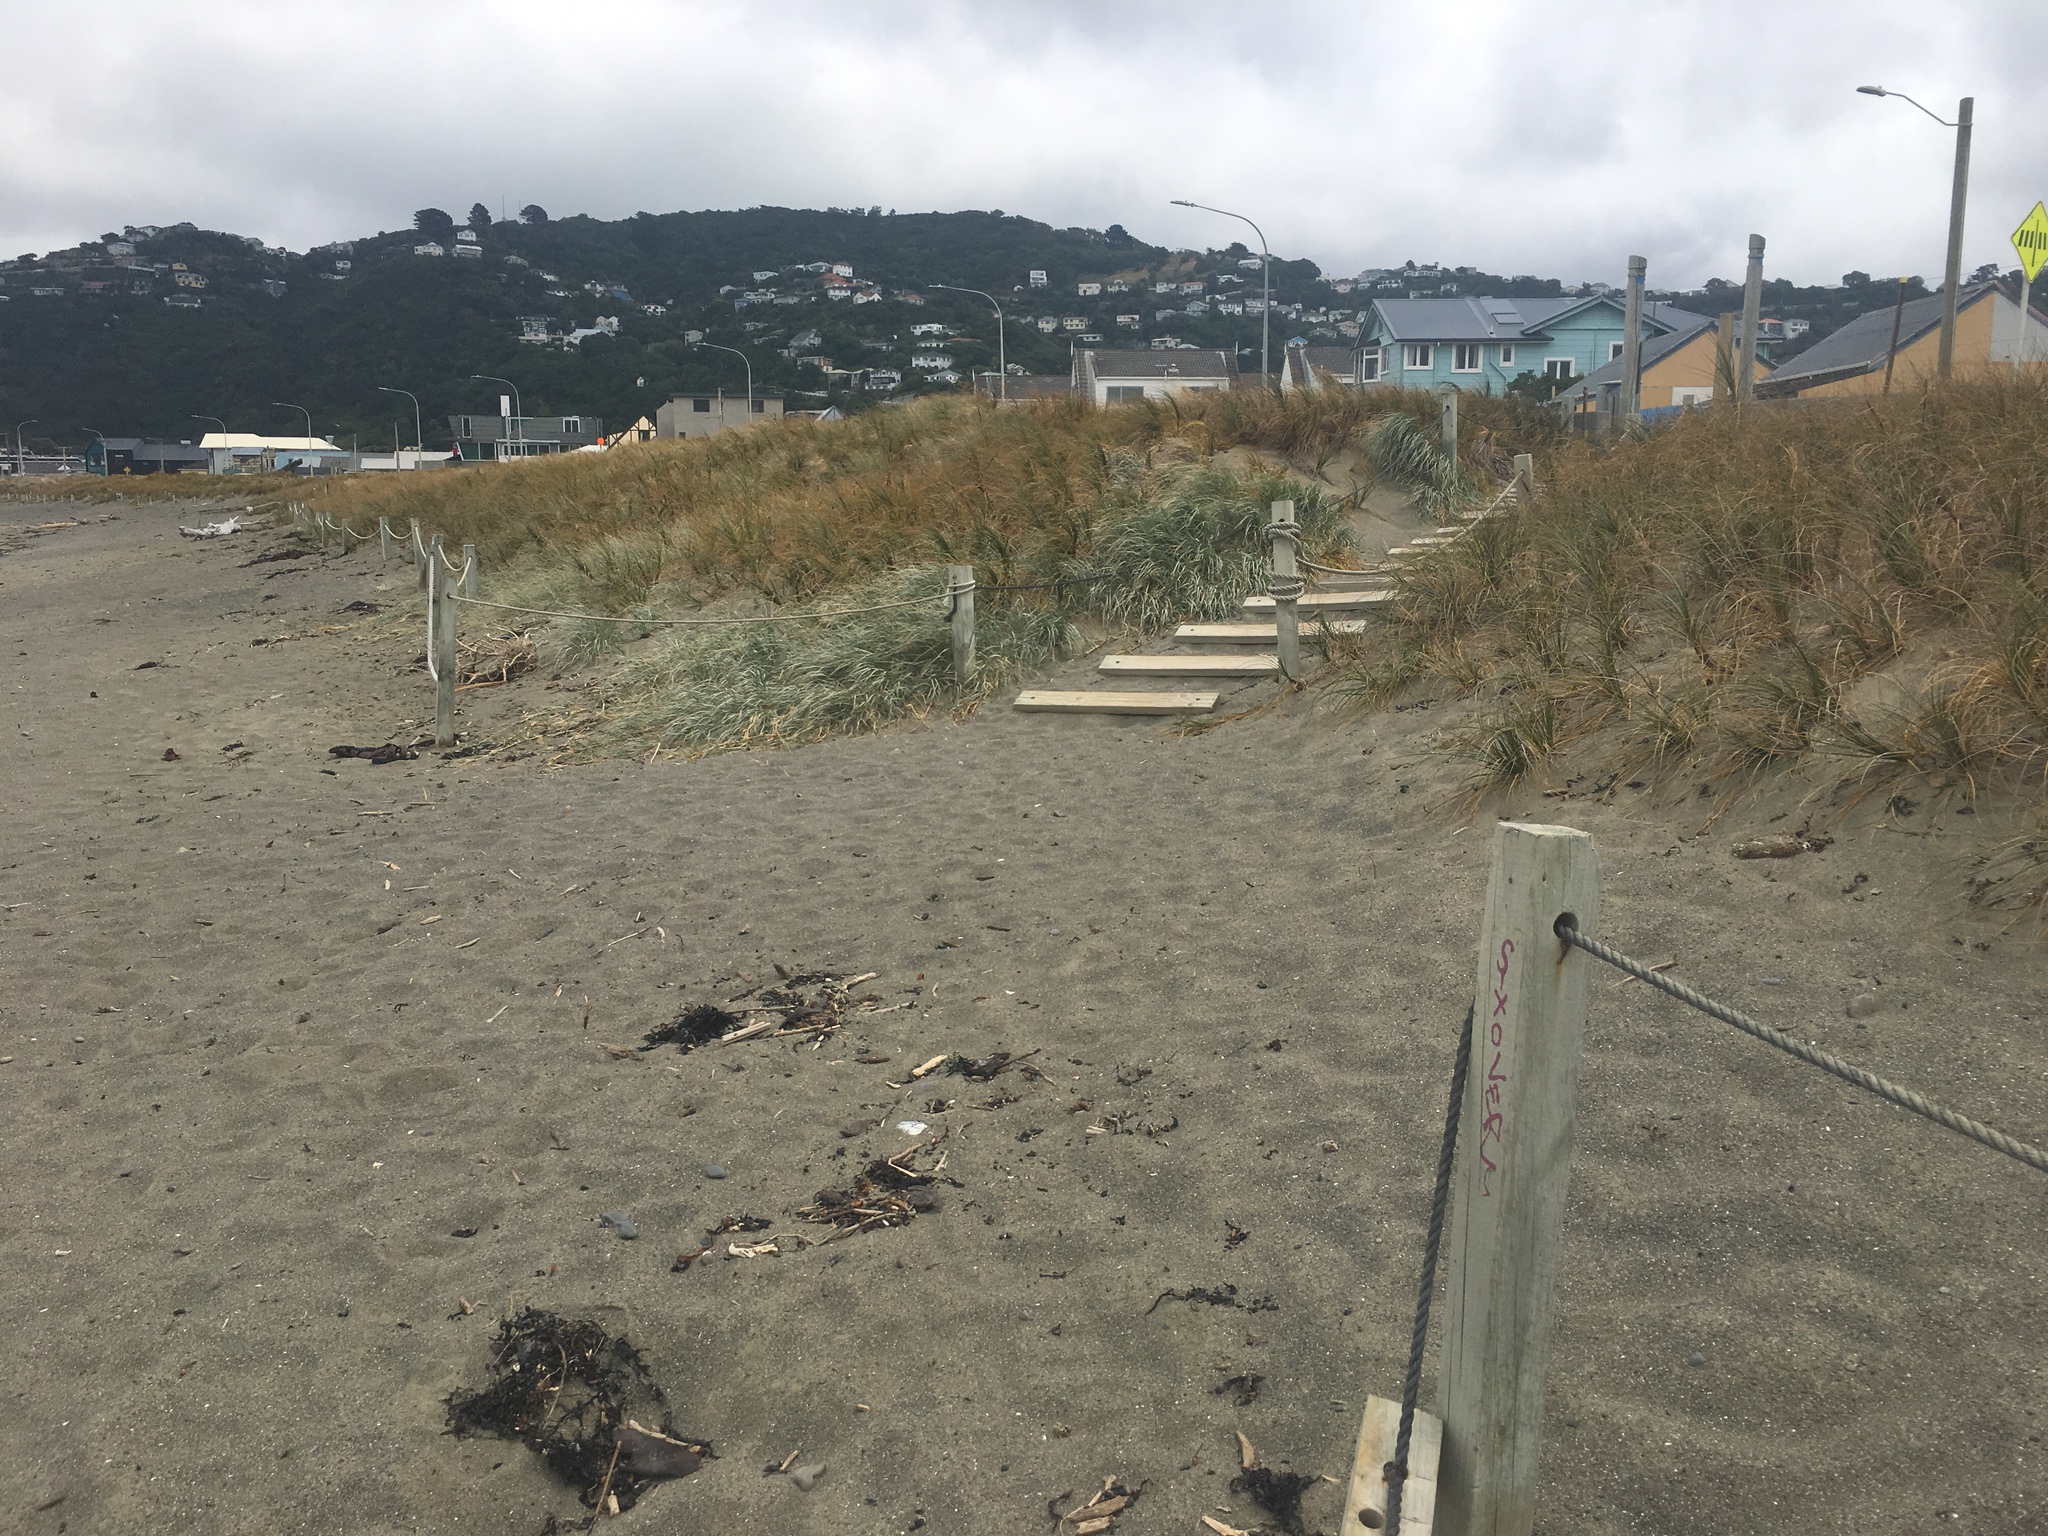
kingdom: Plantae
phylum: Tracheophyta
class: Liliopsida
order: Poales
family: Poaceae
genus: Spinifex
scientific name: Spinifex sericeus
